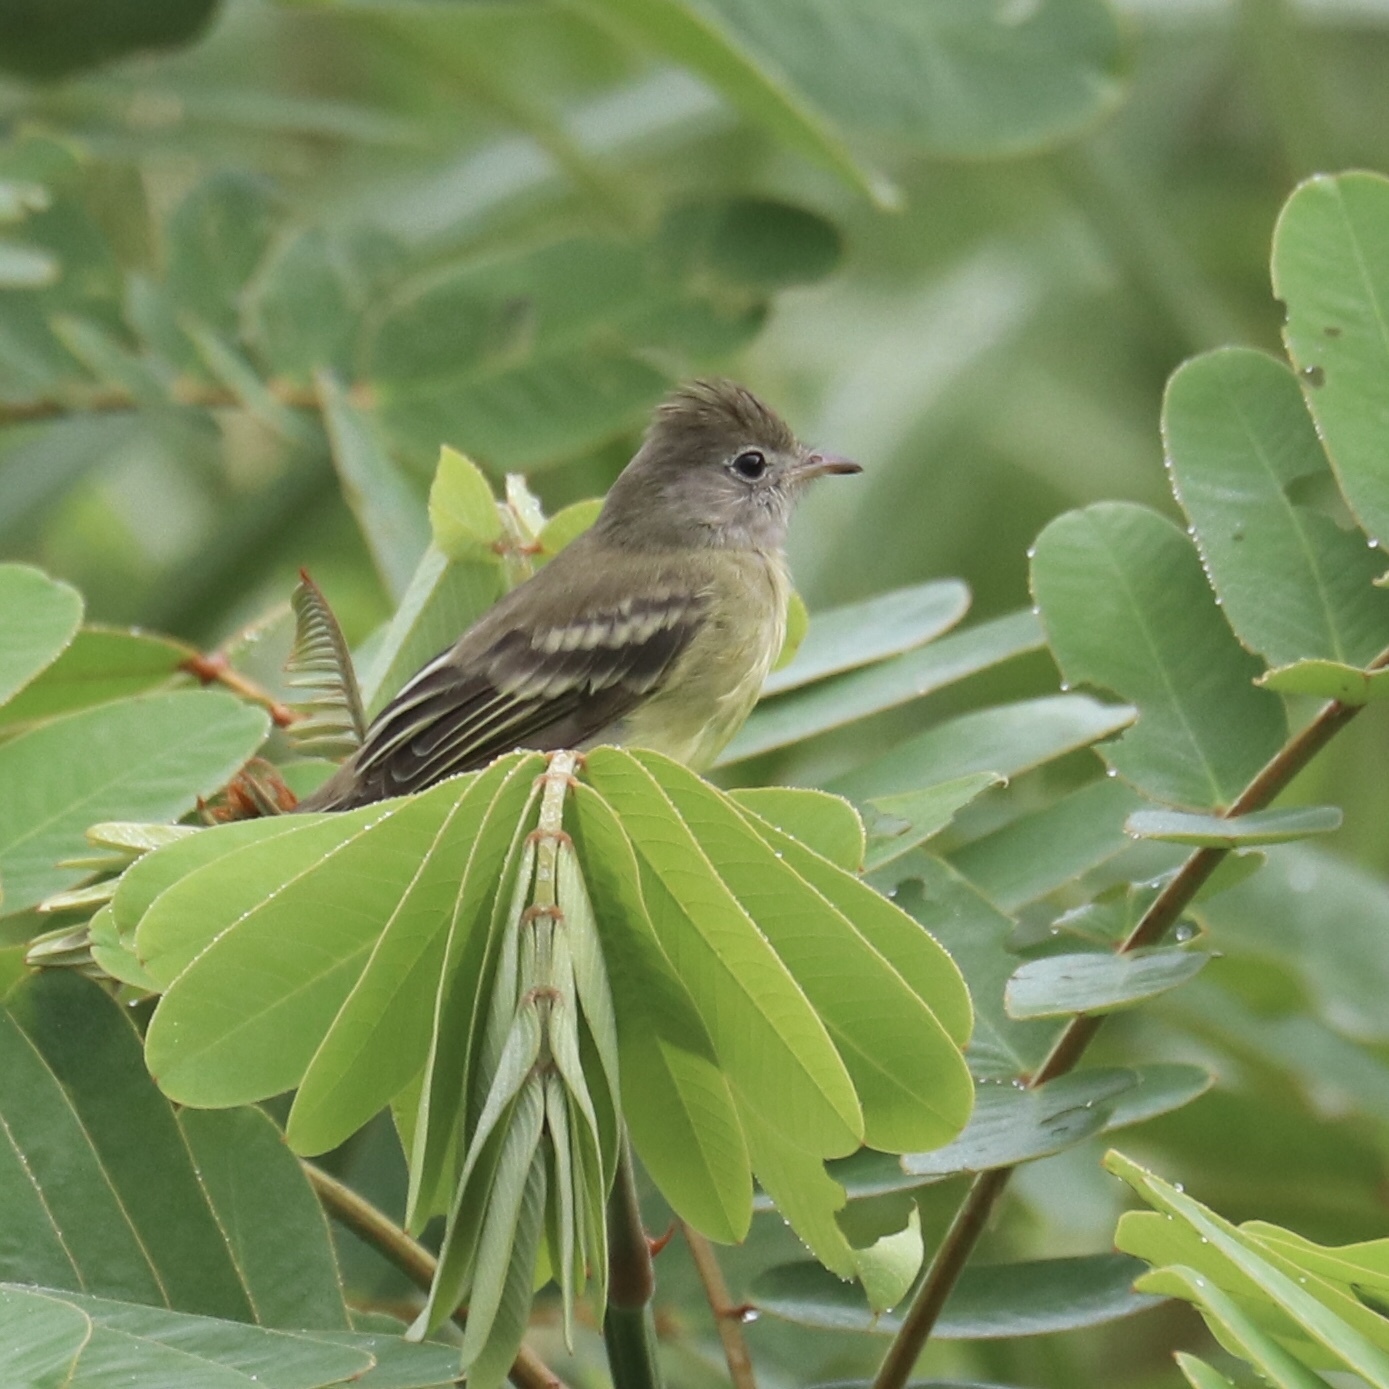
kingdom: Animalia
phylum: Chordata
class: Aves
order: Passeriformes
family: Tyrannidae
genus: Elaenia
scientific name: Elaenia flavogaster
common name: Yellow-bellied elaenia
